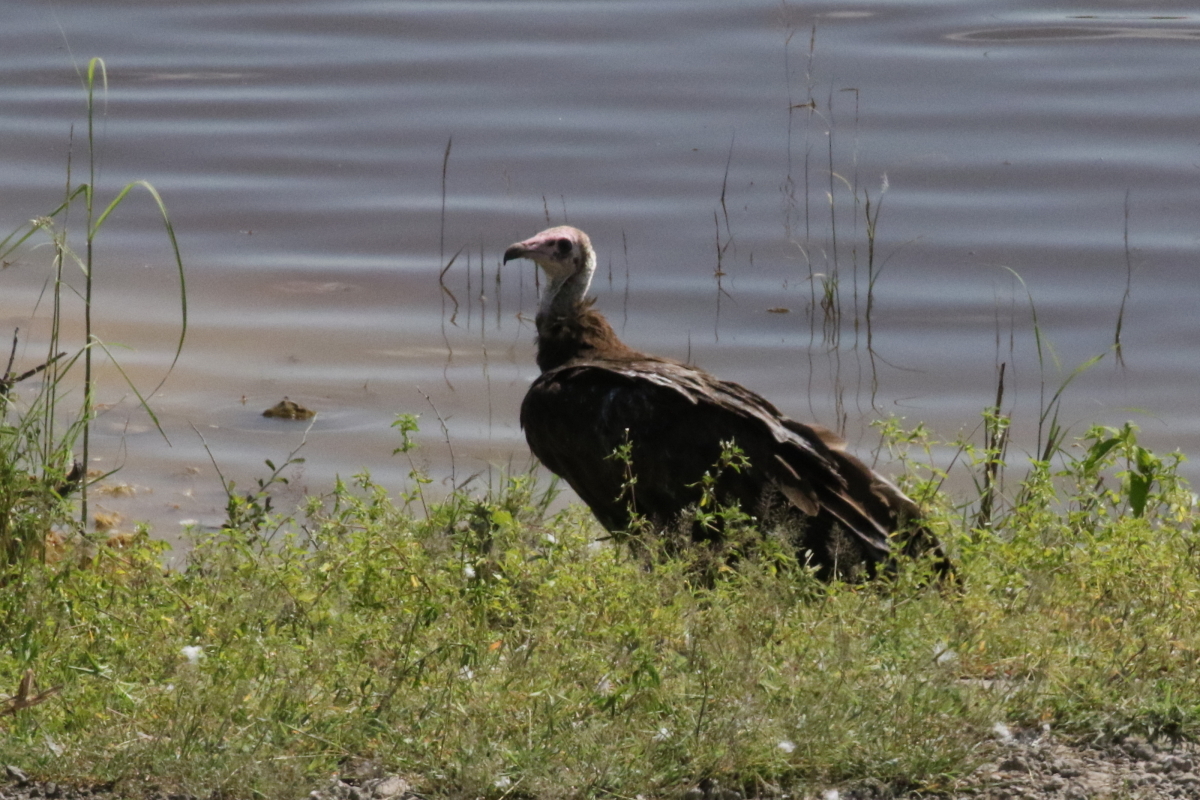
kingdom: Animalia
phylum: Chordata
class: Aves
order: Accipitriformes
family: Accipitridae
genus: Necrosyrtes
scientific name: Necrosyrtes monachus
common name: Hooded vulture
